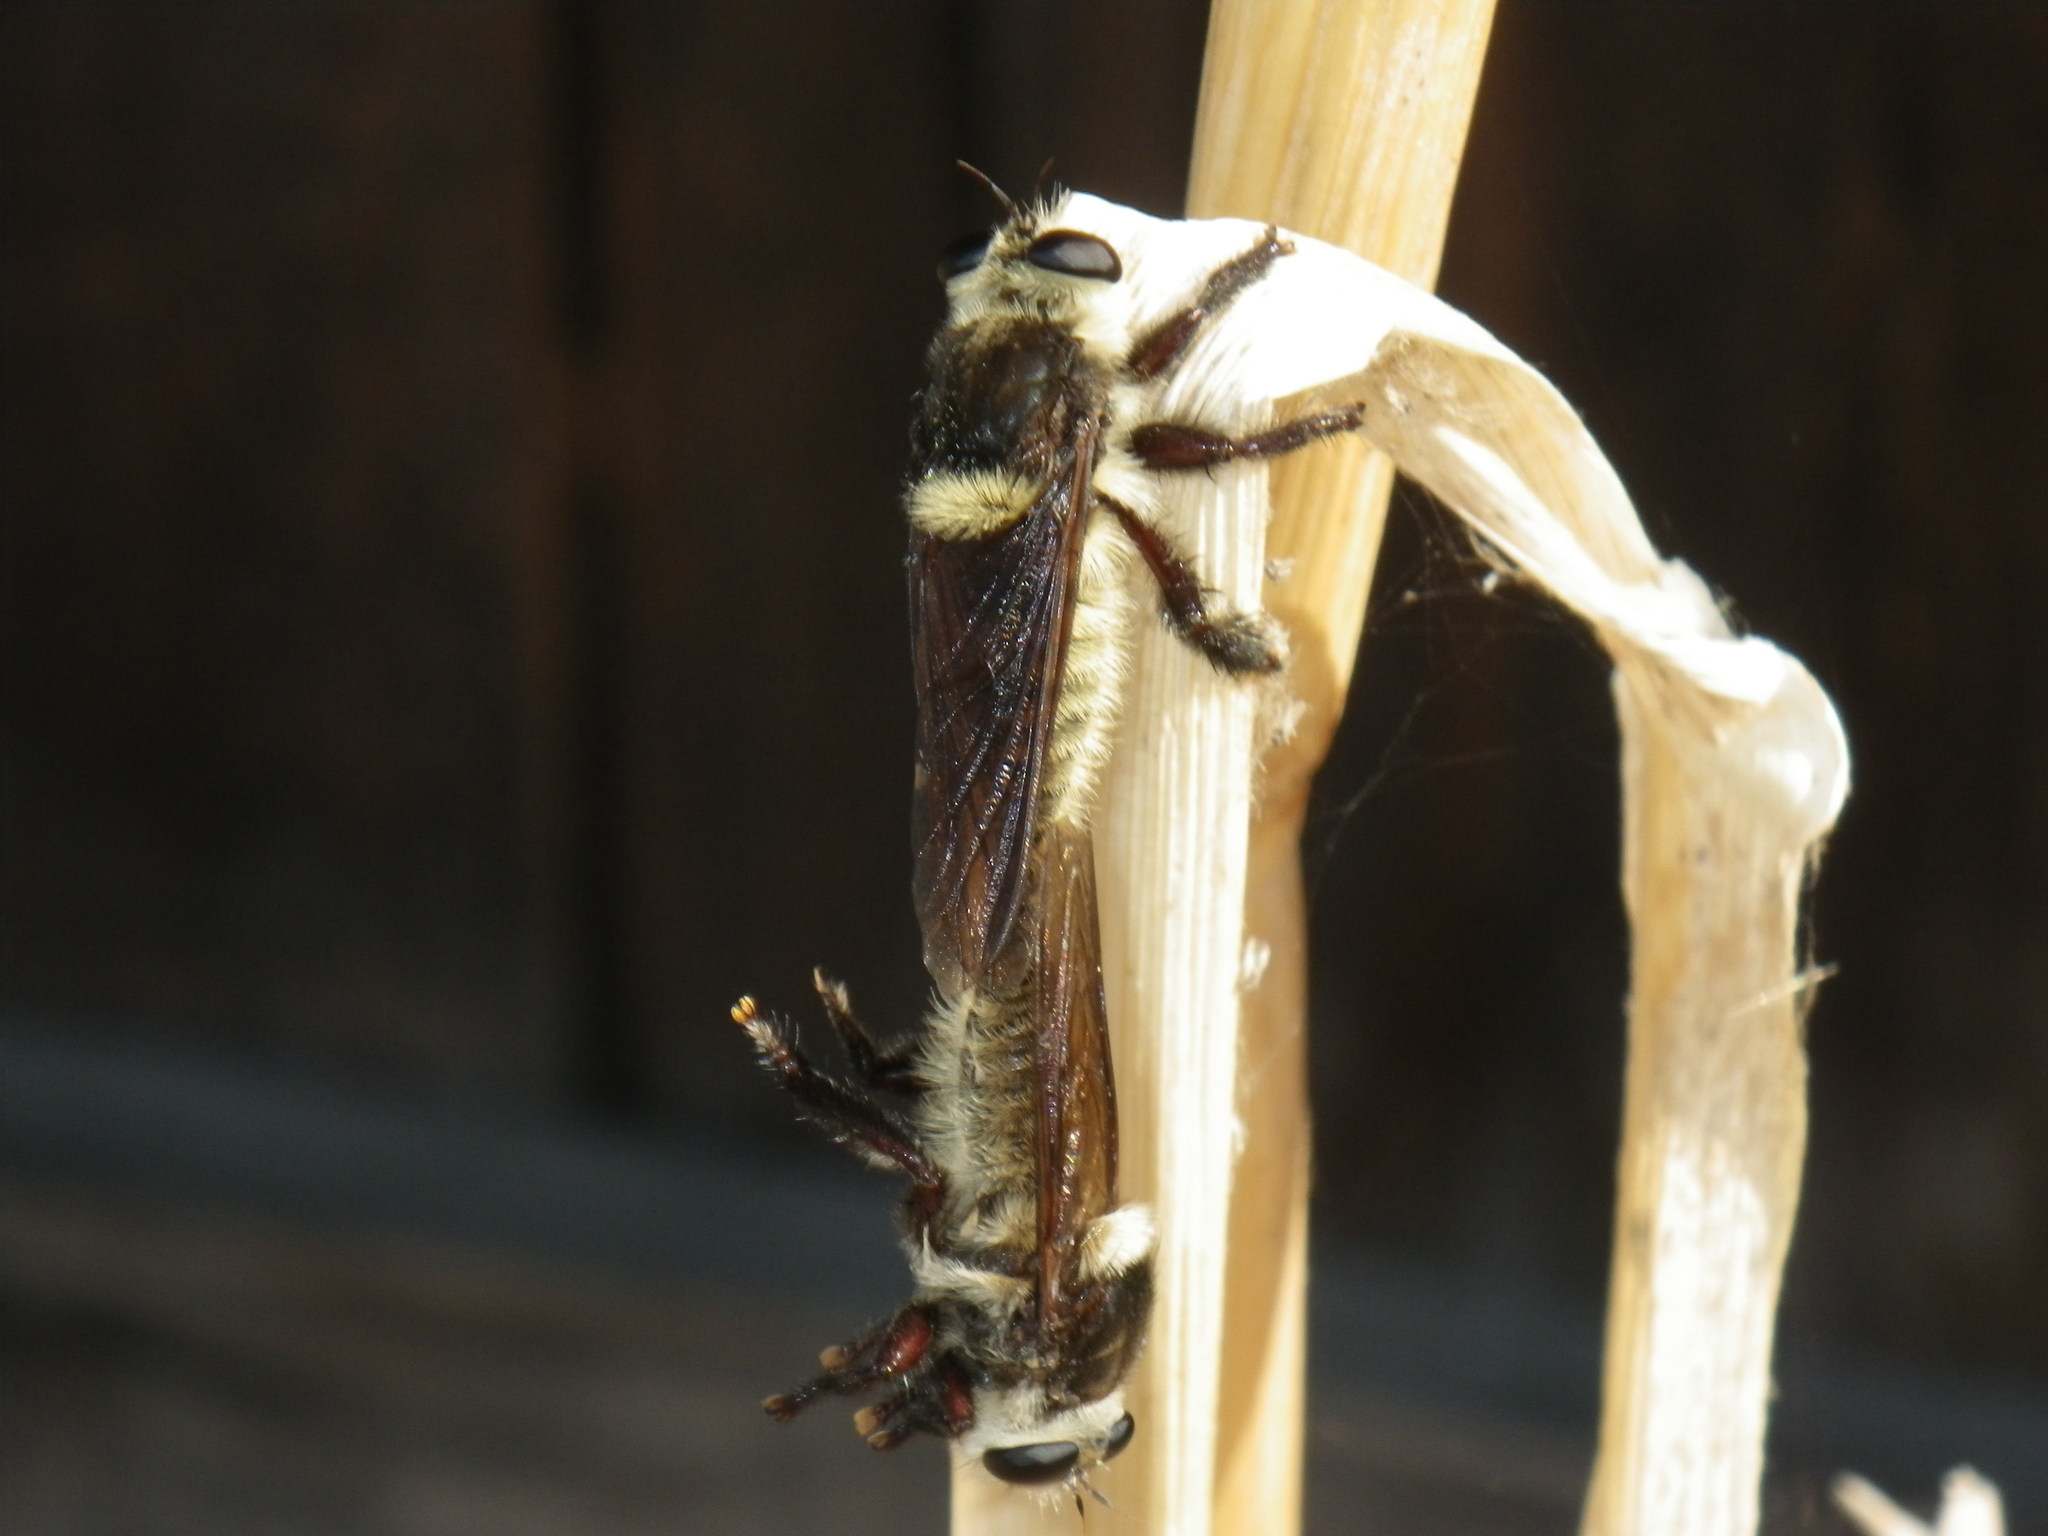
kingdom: Animalia
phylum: Arthropoda
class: Insecta
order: Diptera
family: Asilidae
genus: Mallophora
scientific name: Mallophora fautrix
